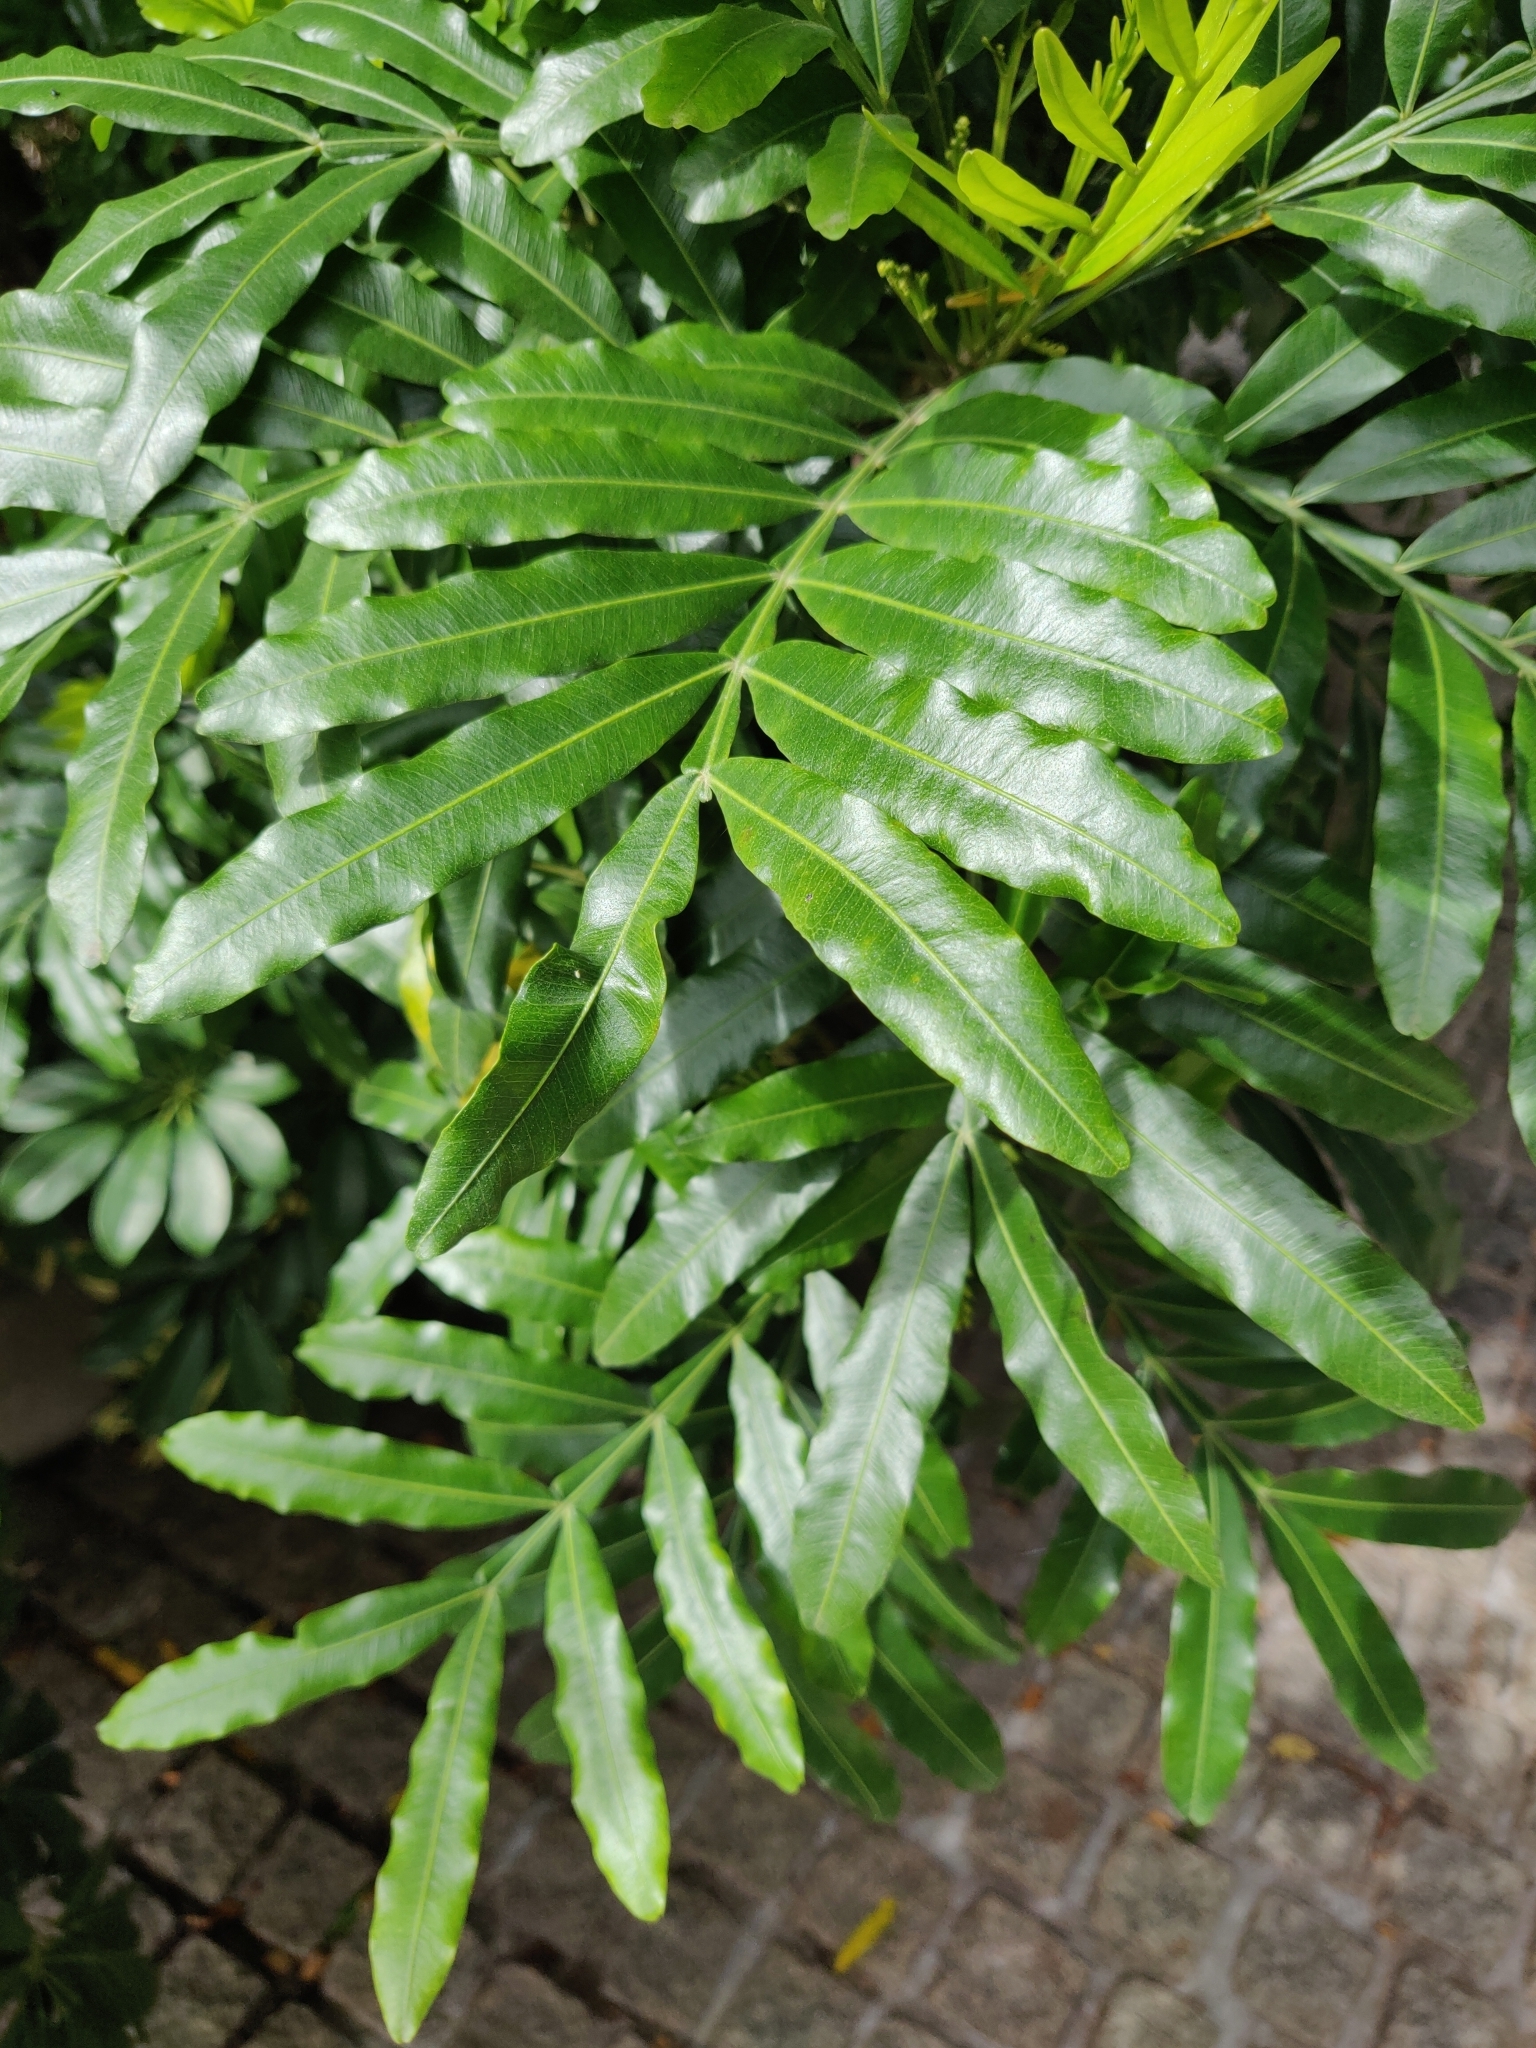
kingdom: Plantae
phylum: Tracheophyta
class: Magnoliopsida
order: Sapindales
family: Sapindaceae
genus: Filicium
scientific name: Filicium decipiens
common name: Ferntree
